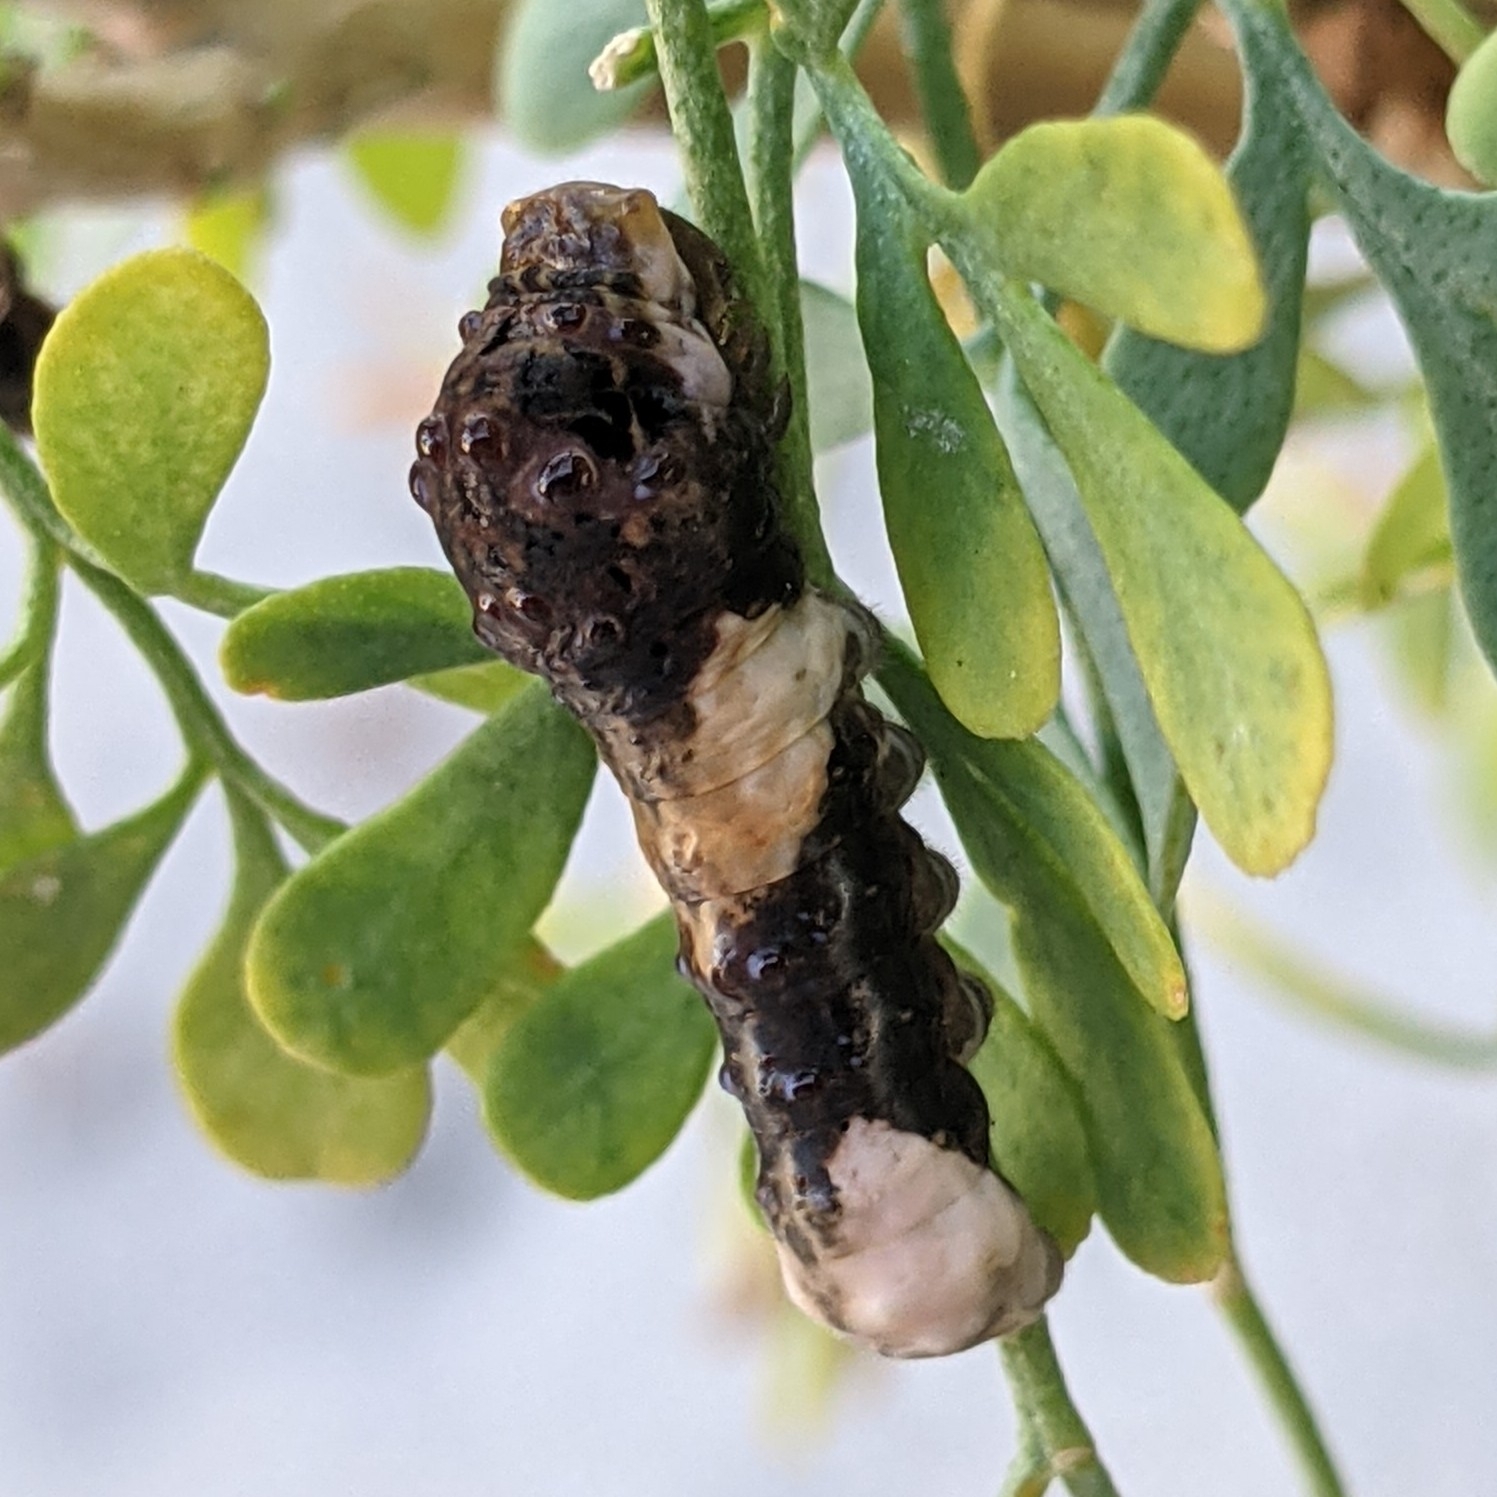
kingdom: Animalia
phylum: Arthropoda
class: Insecta
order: Lepidoptera
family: Papilionidae
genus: Papilio
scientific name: Papilio cresphontes
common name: Giant swallowtail
